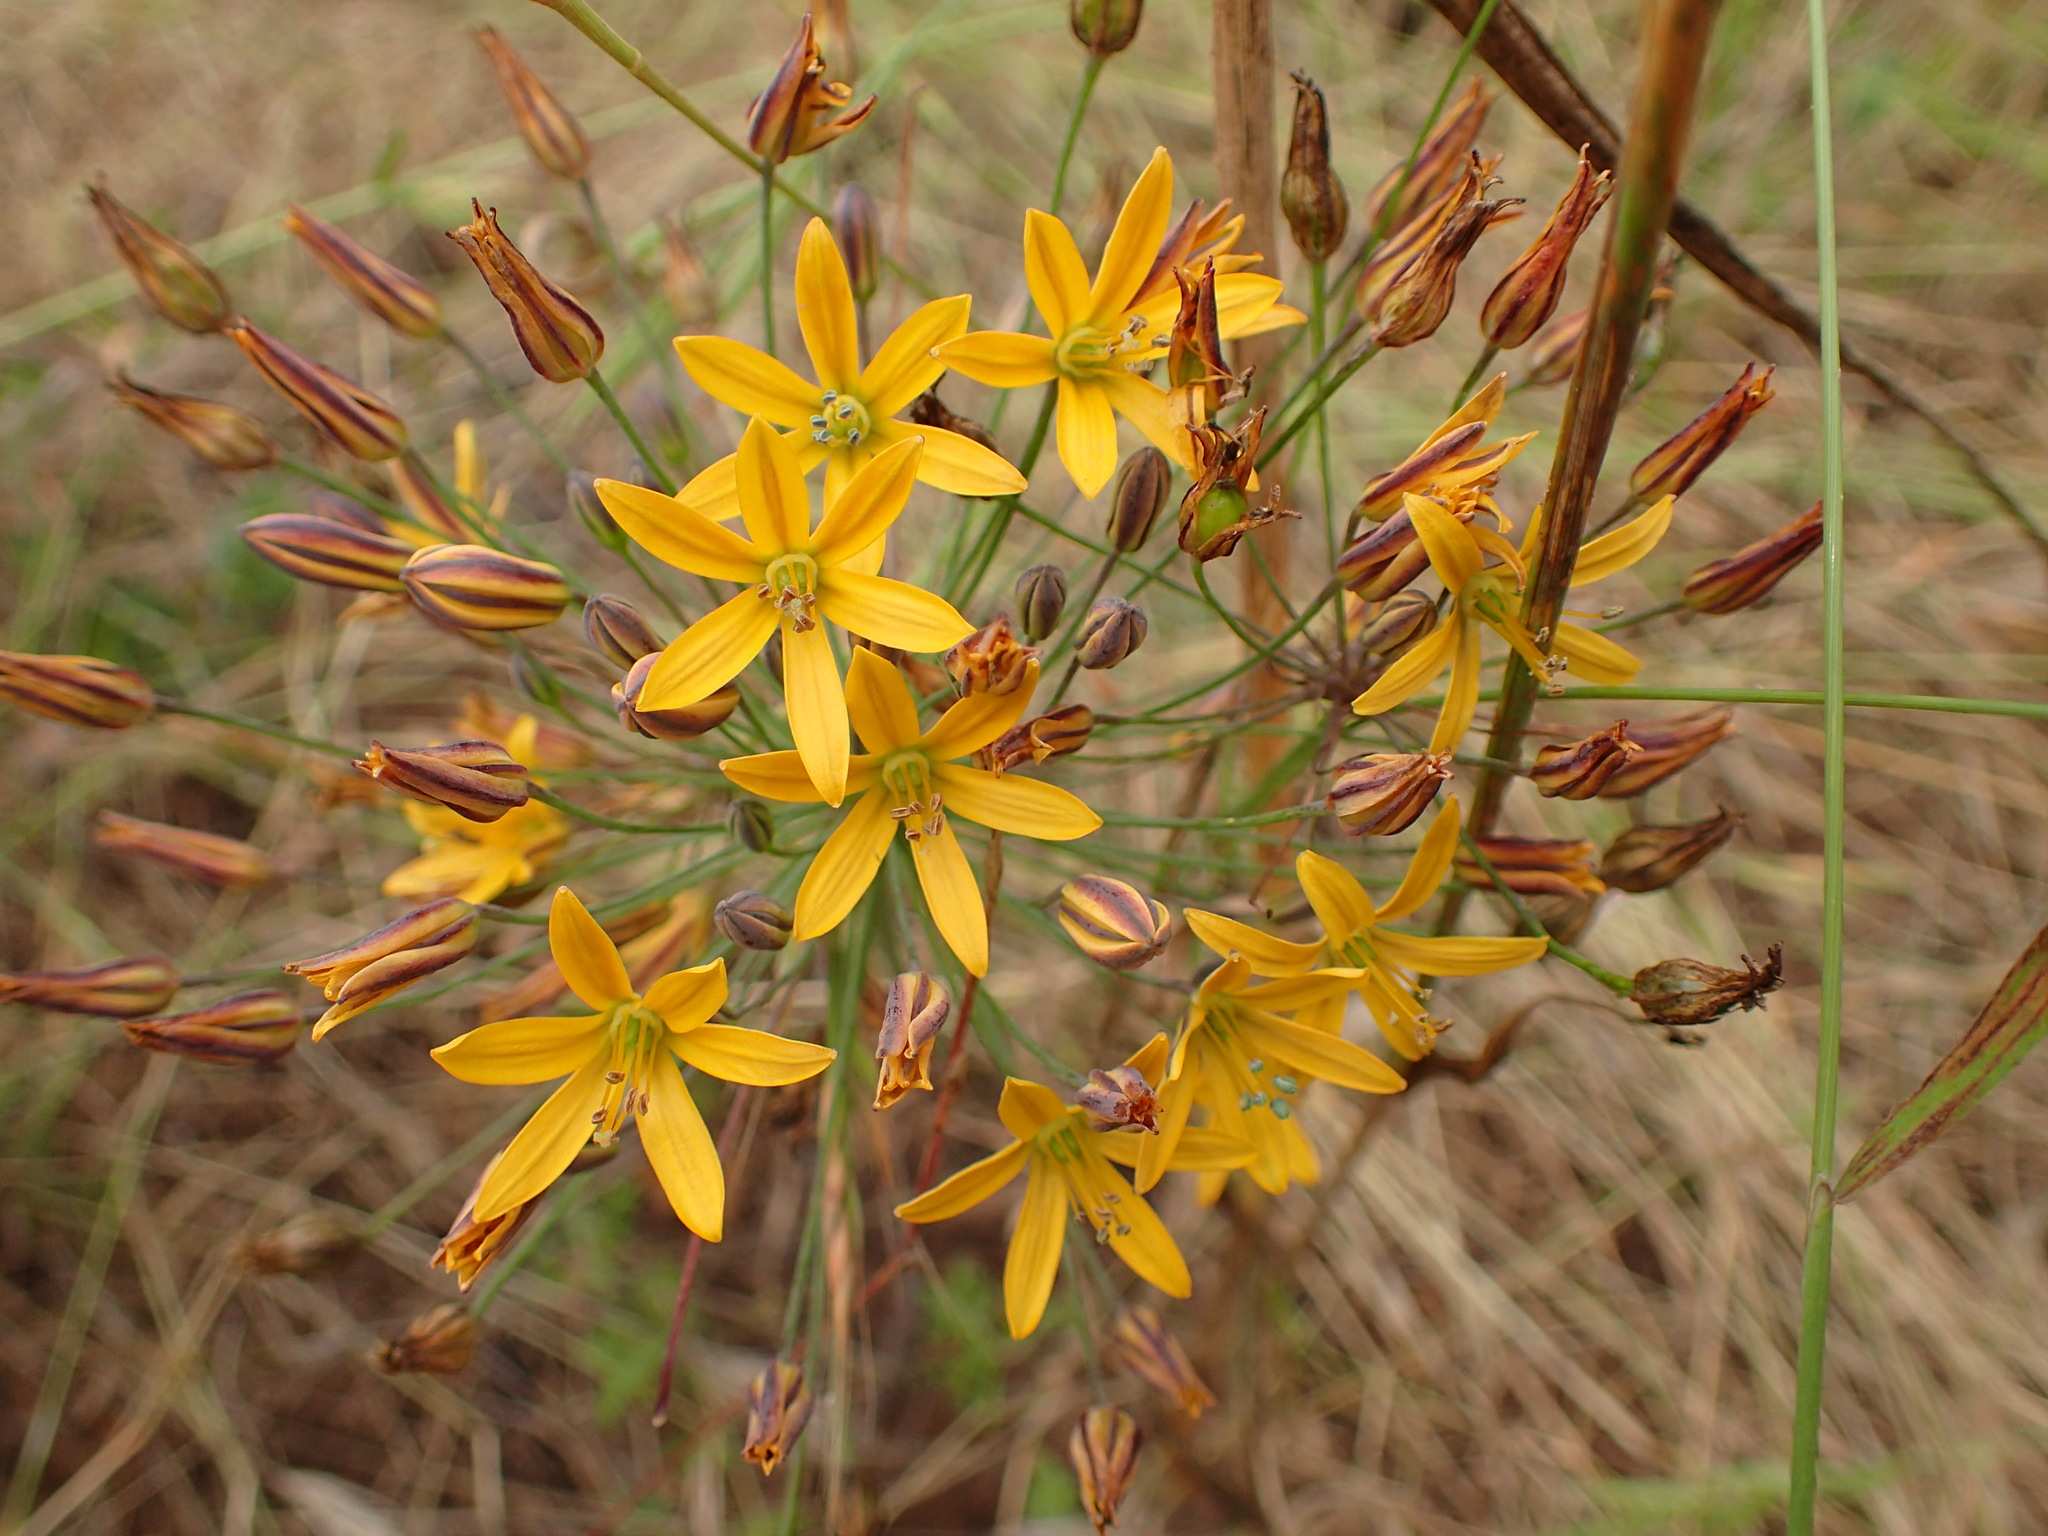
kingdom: Plantae
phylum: Tracheophyta
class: Liliopsida
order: Asparagales
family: Asparagaceae
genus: Bloomeria
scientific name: Bloomeria crocea
